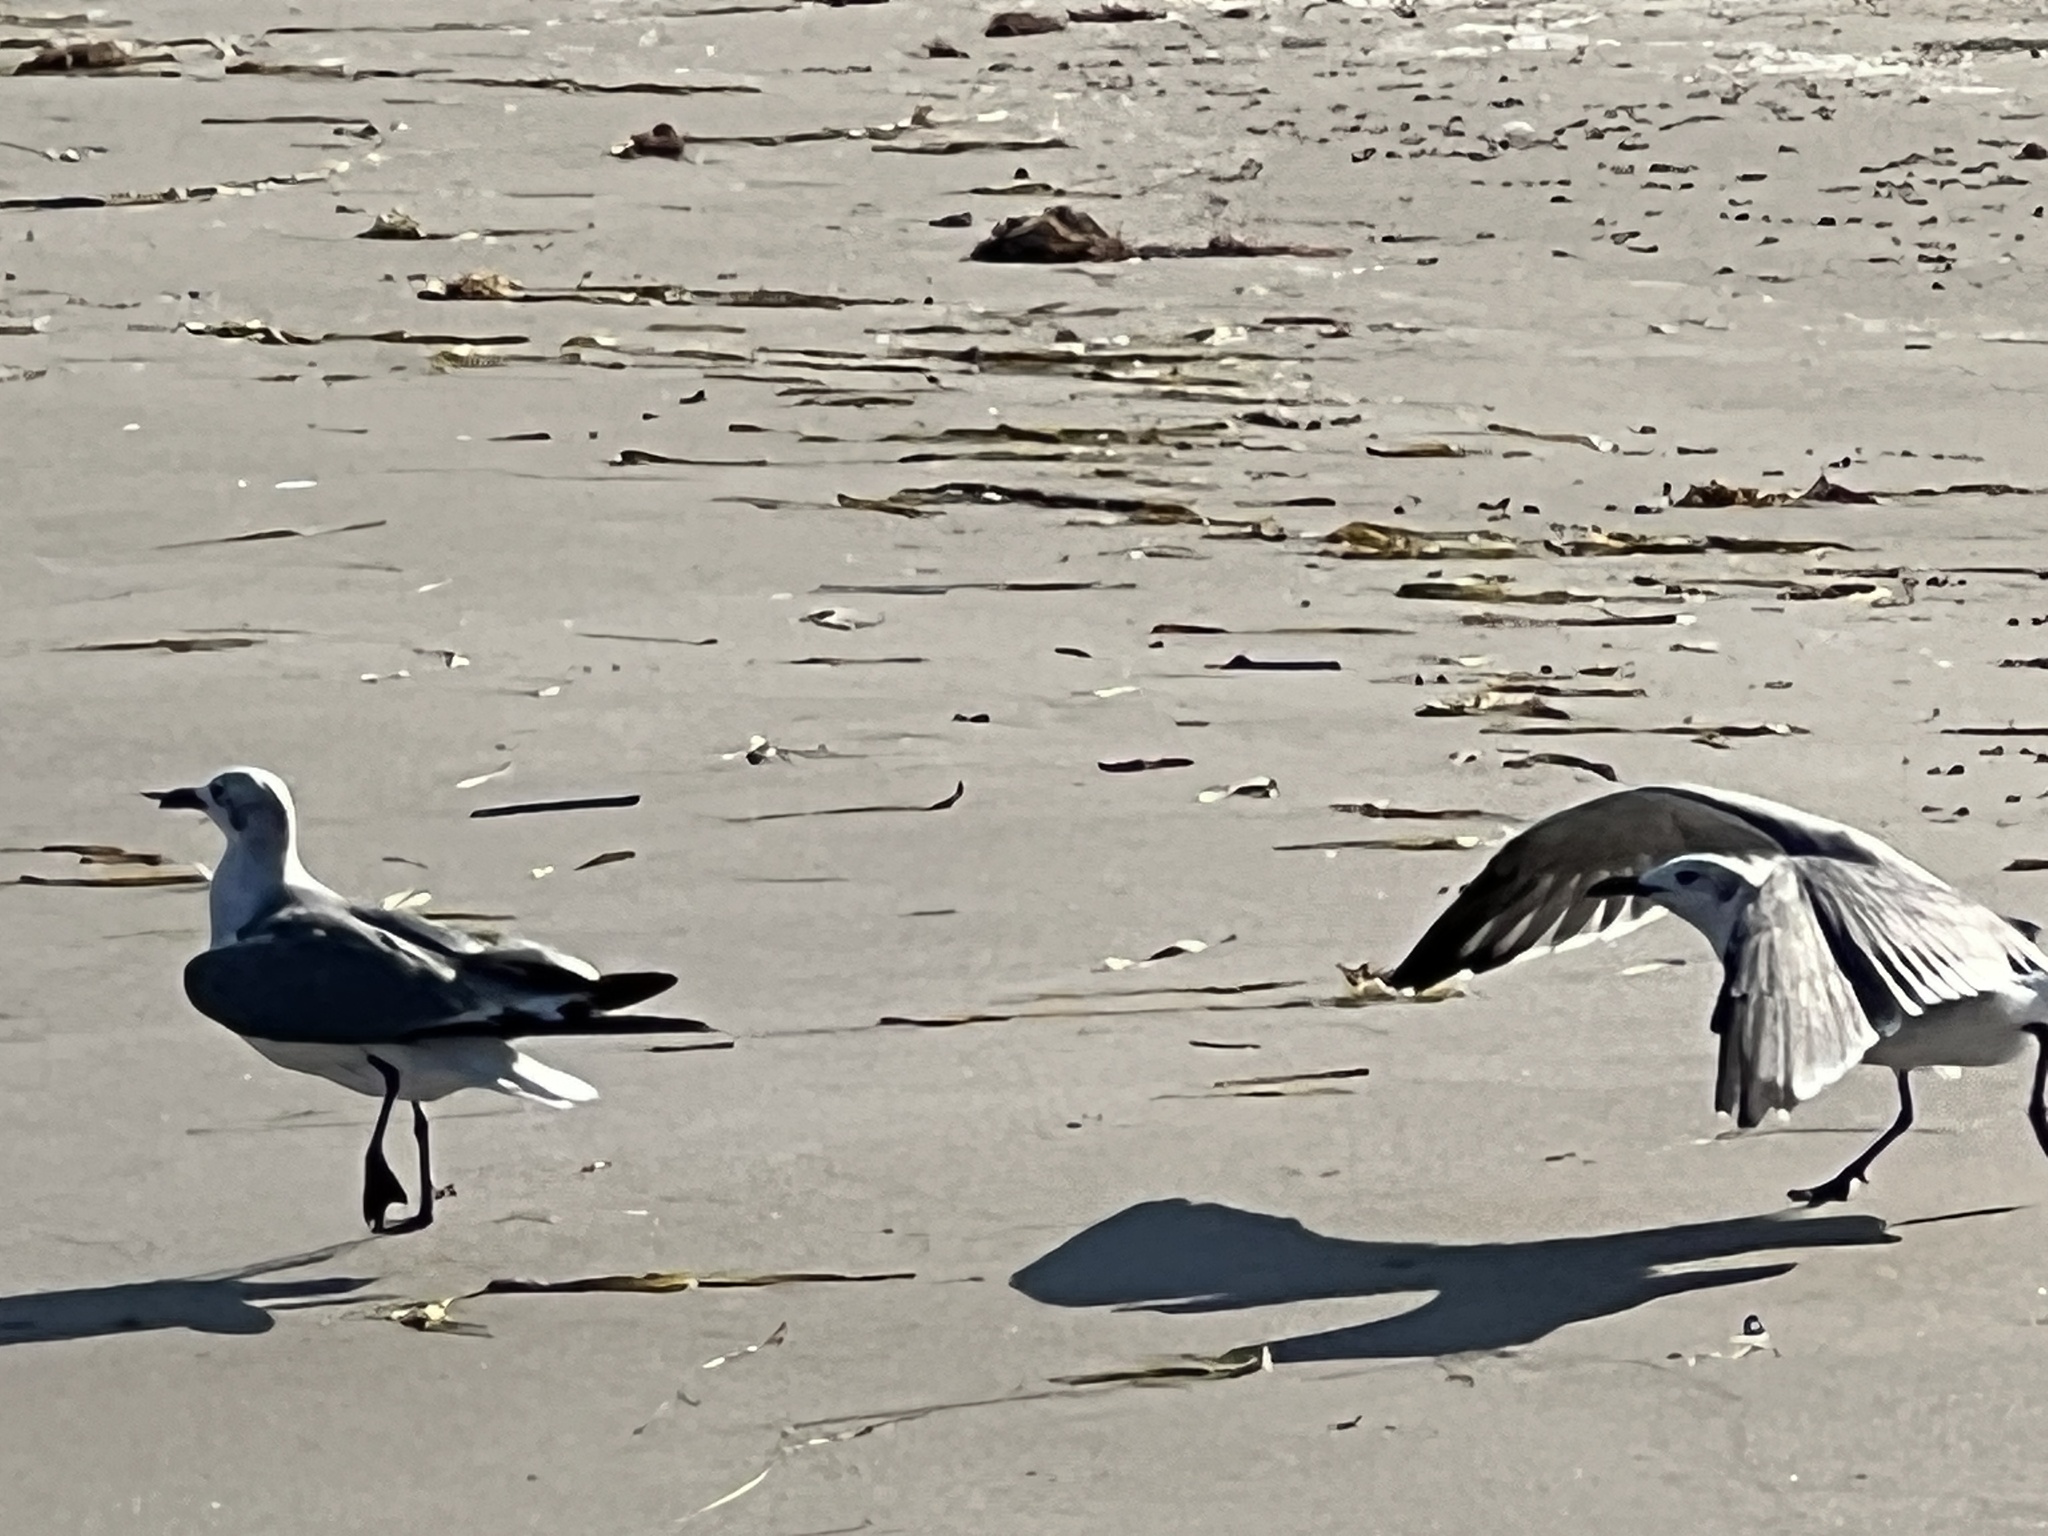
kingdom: Animalia
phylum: Chordata
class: Aves
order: Charadriiformes
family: Laridae
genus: Leucophaeus
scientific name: Leucophaeus atricilla
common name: Laughing gull
